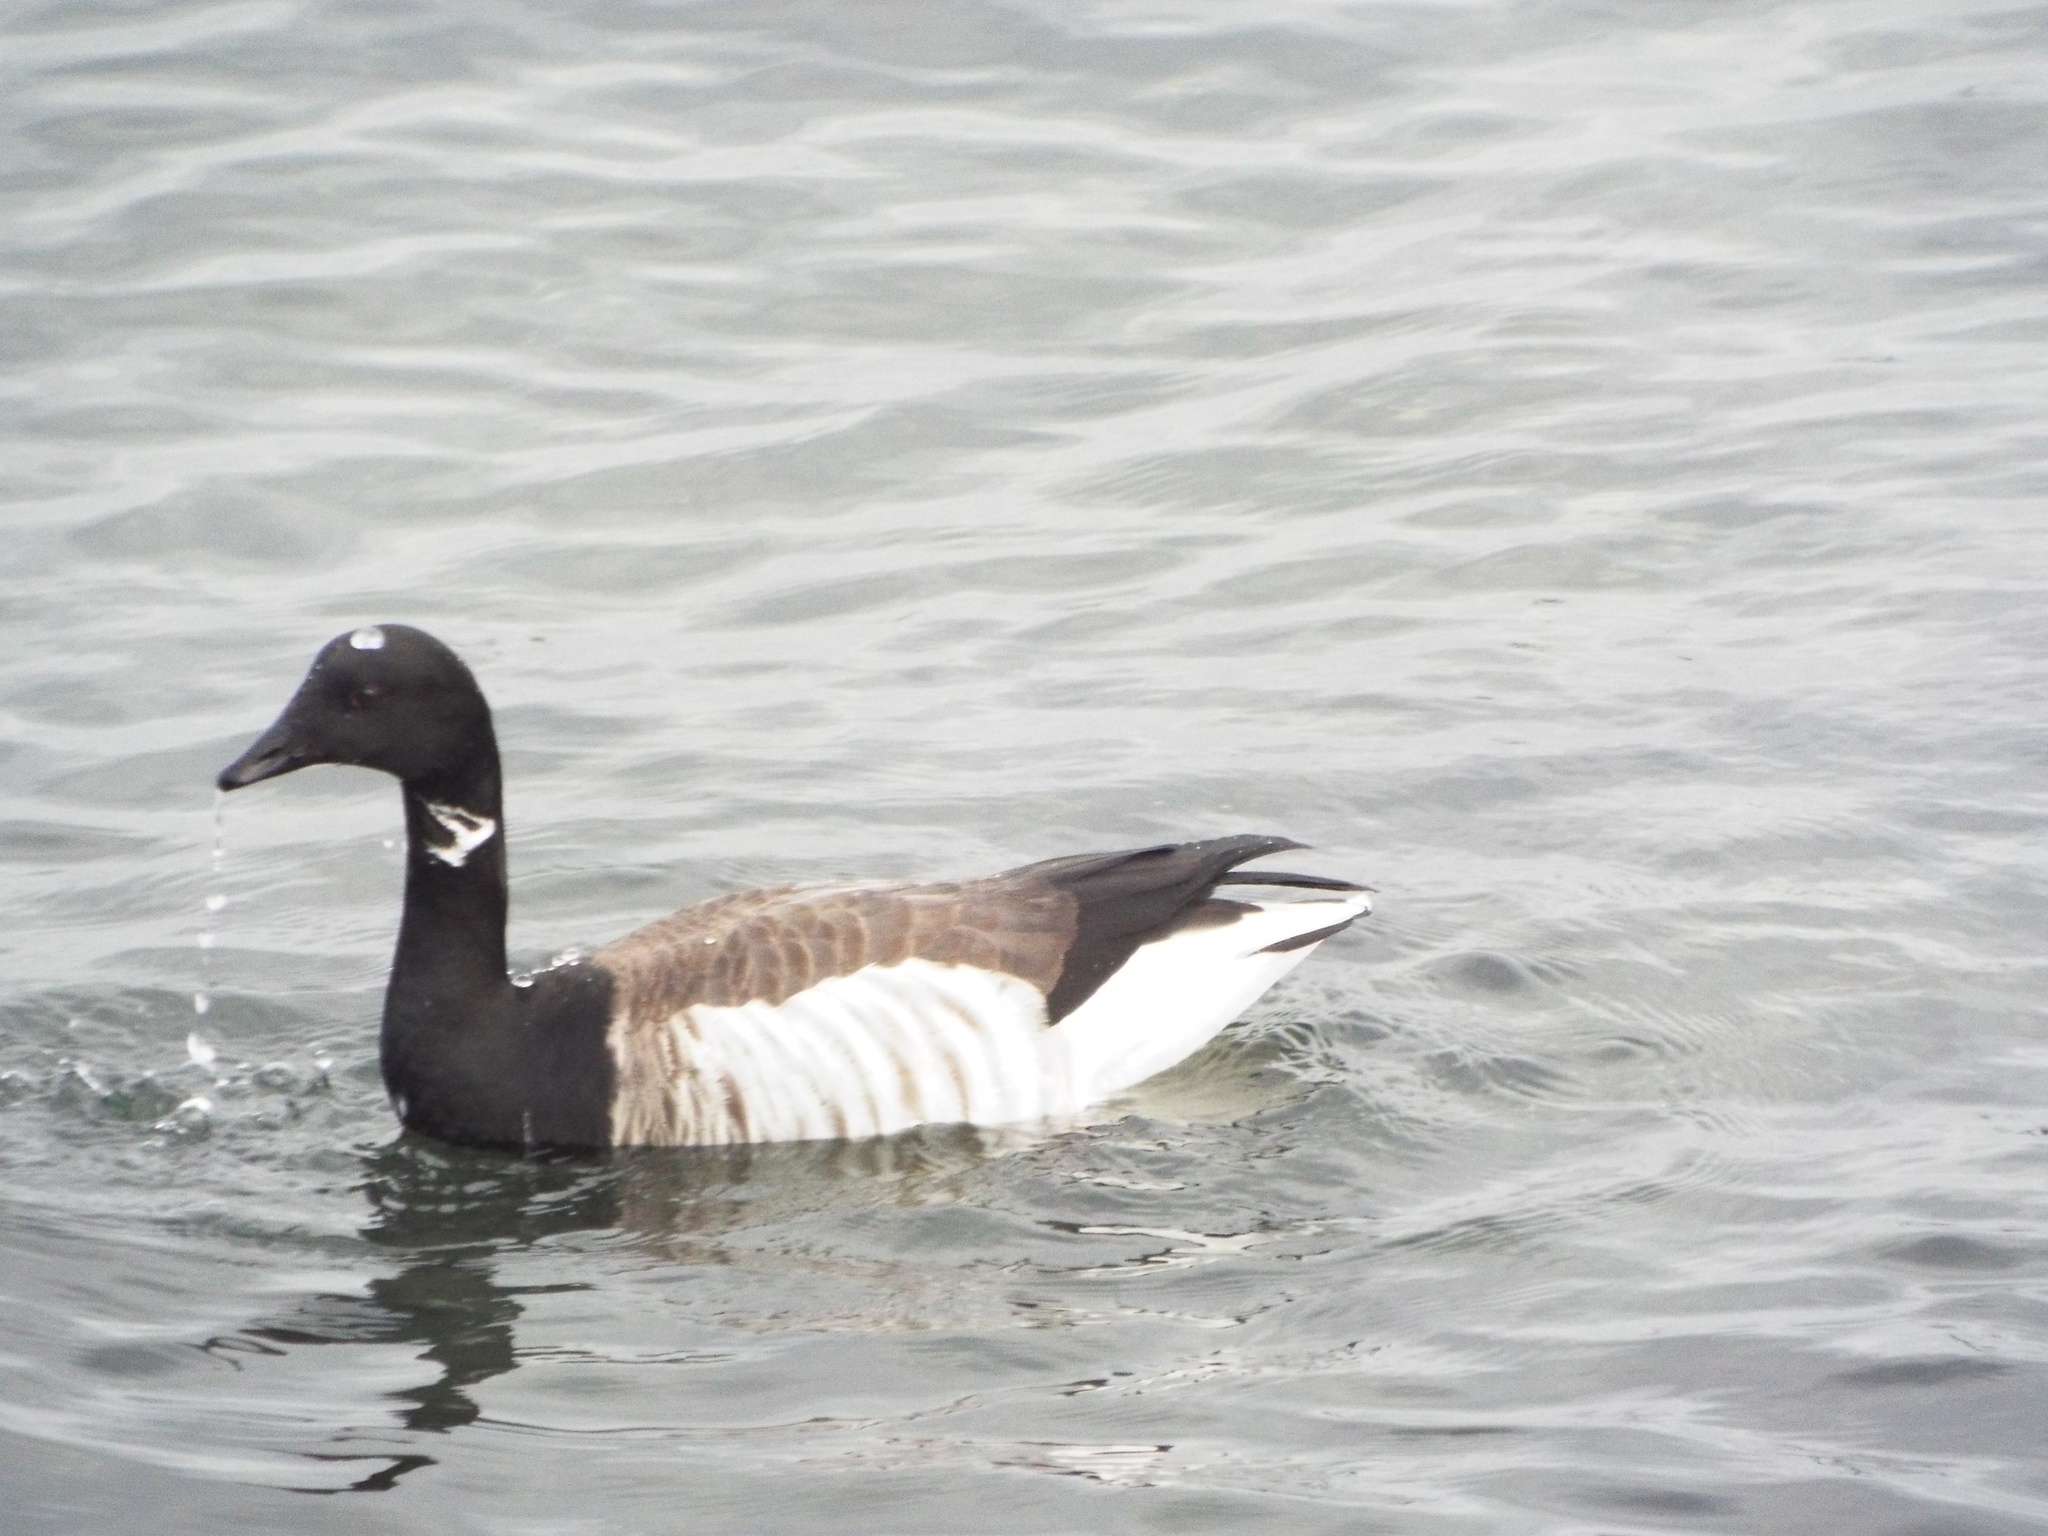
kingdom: Animalia
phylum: Chordata
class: Aves
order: Anseriformes
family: Anatidae
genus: Branta
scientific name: Branta bernicla
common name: Brant goose
